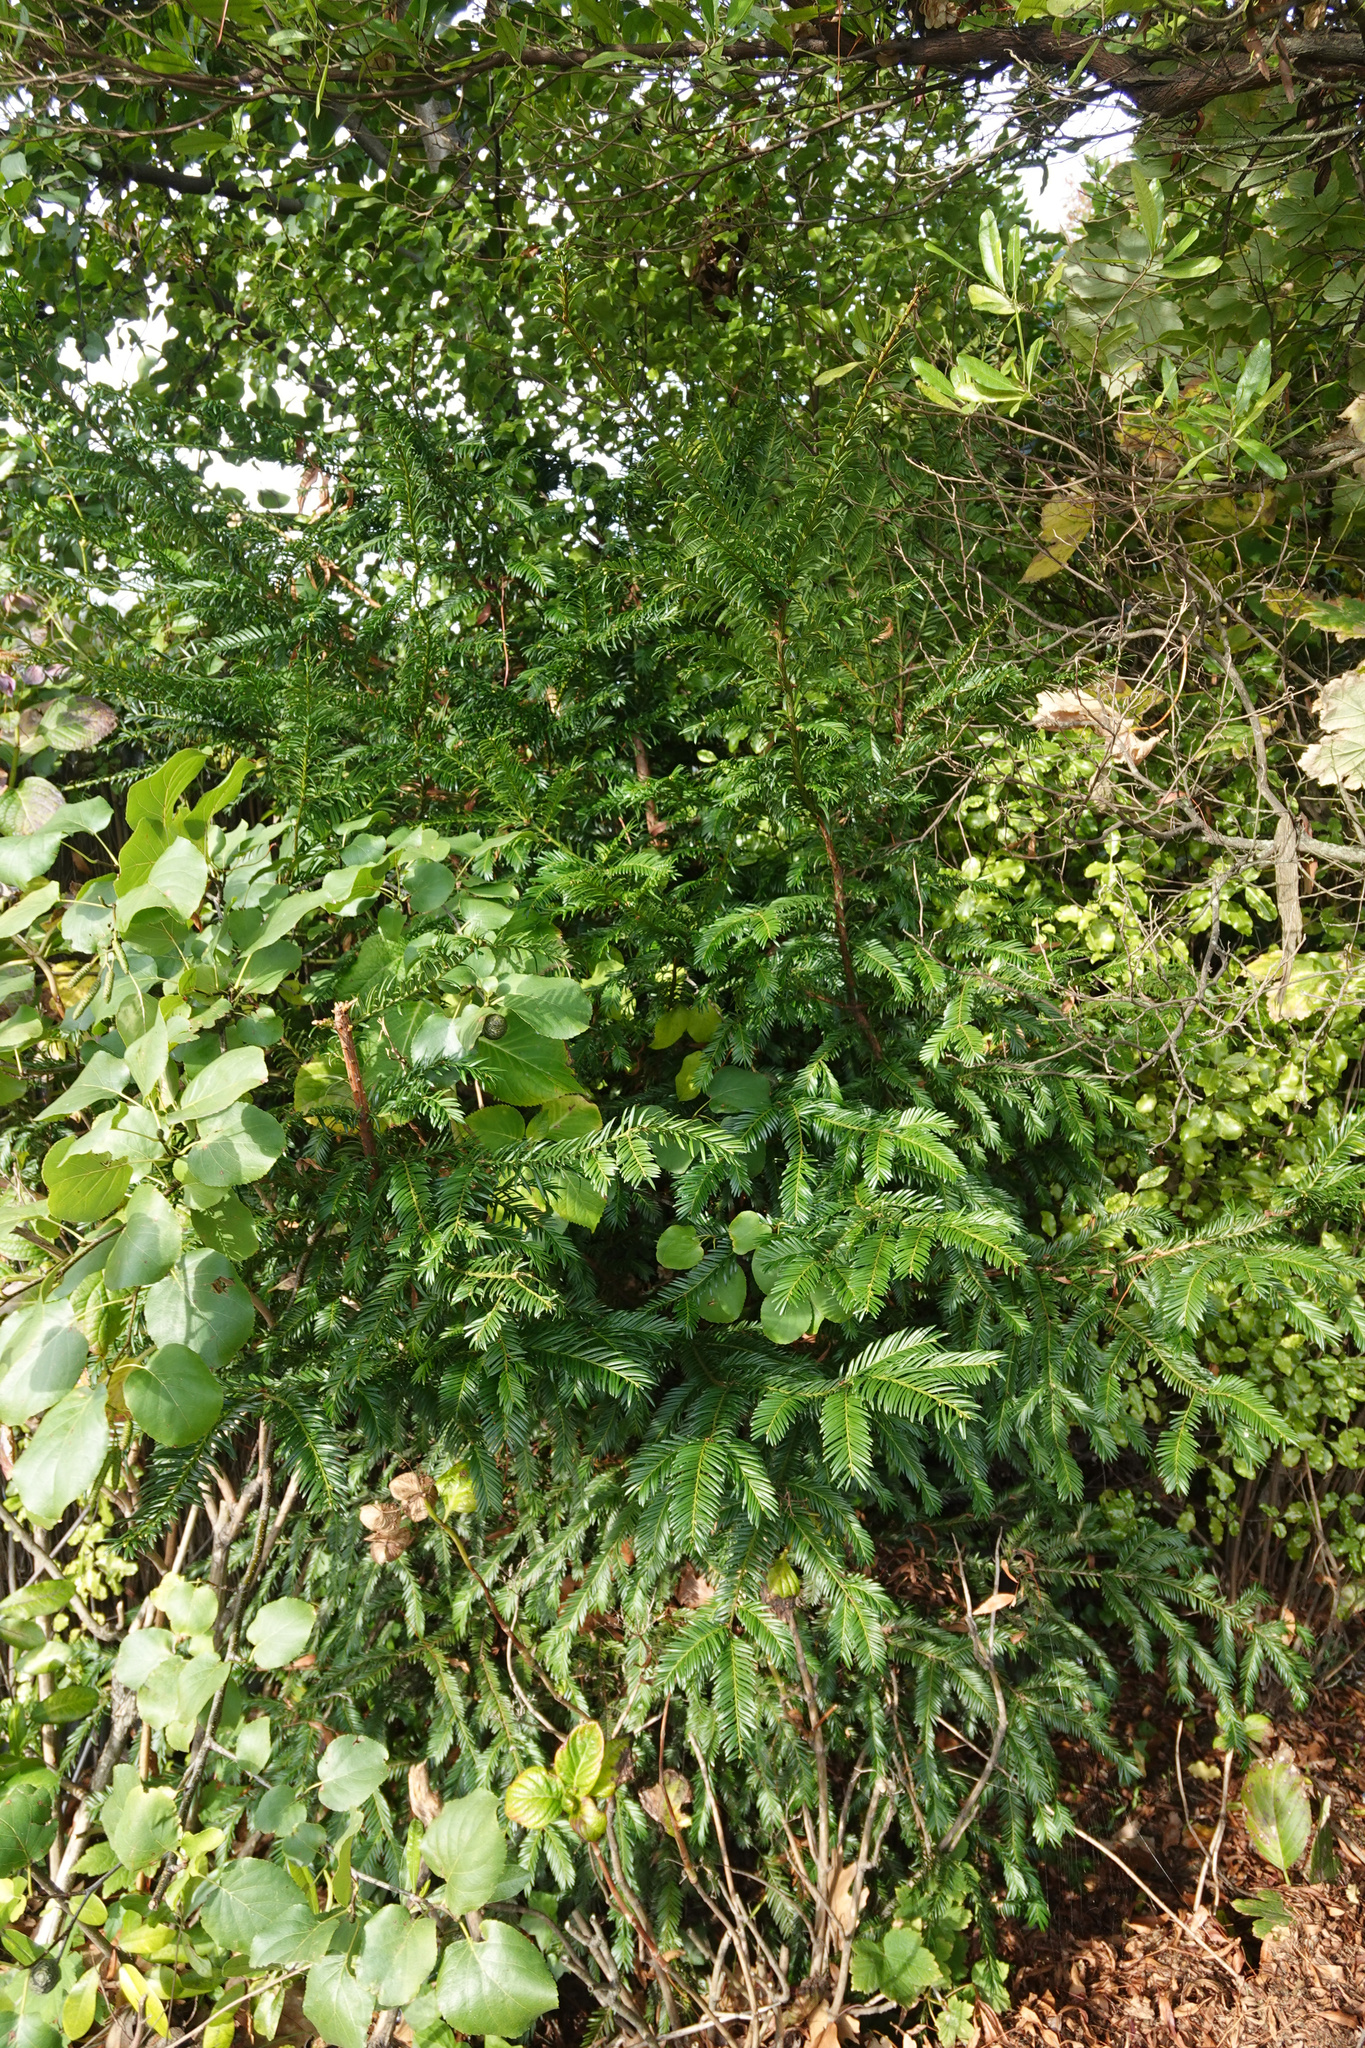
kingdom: Plantae
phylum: Tracheophyta
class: Pinopsida
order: Pinales
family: Taxaceae
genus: Taxus
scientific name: Taxus baccata
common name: Yew
